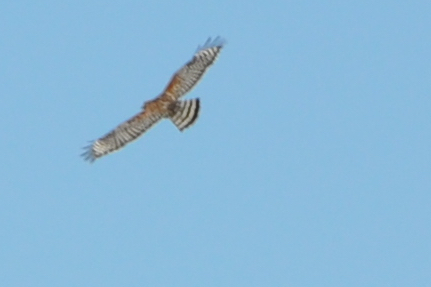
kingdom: Animalia
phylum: Chordata
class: Aves
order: Accipitriformes
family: Accipitridae
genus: Buteo
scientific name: Buteo lineatus
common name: Red-shouldered hawk
